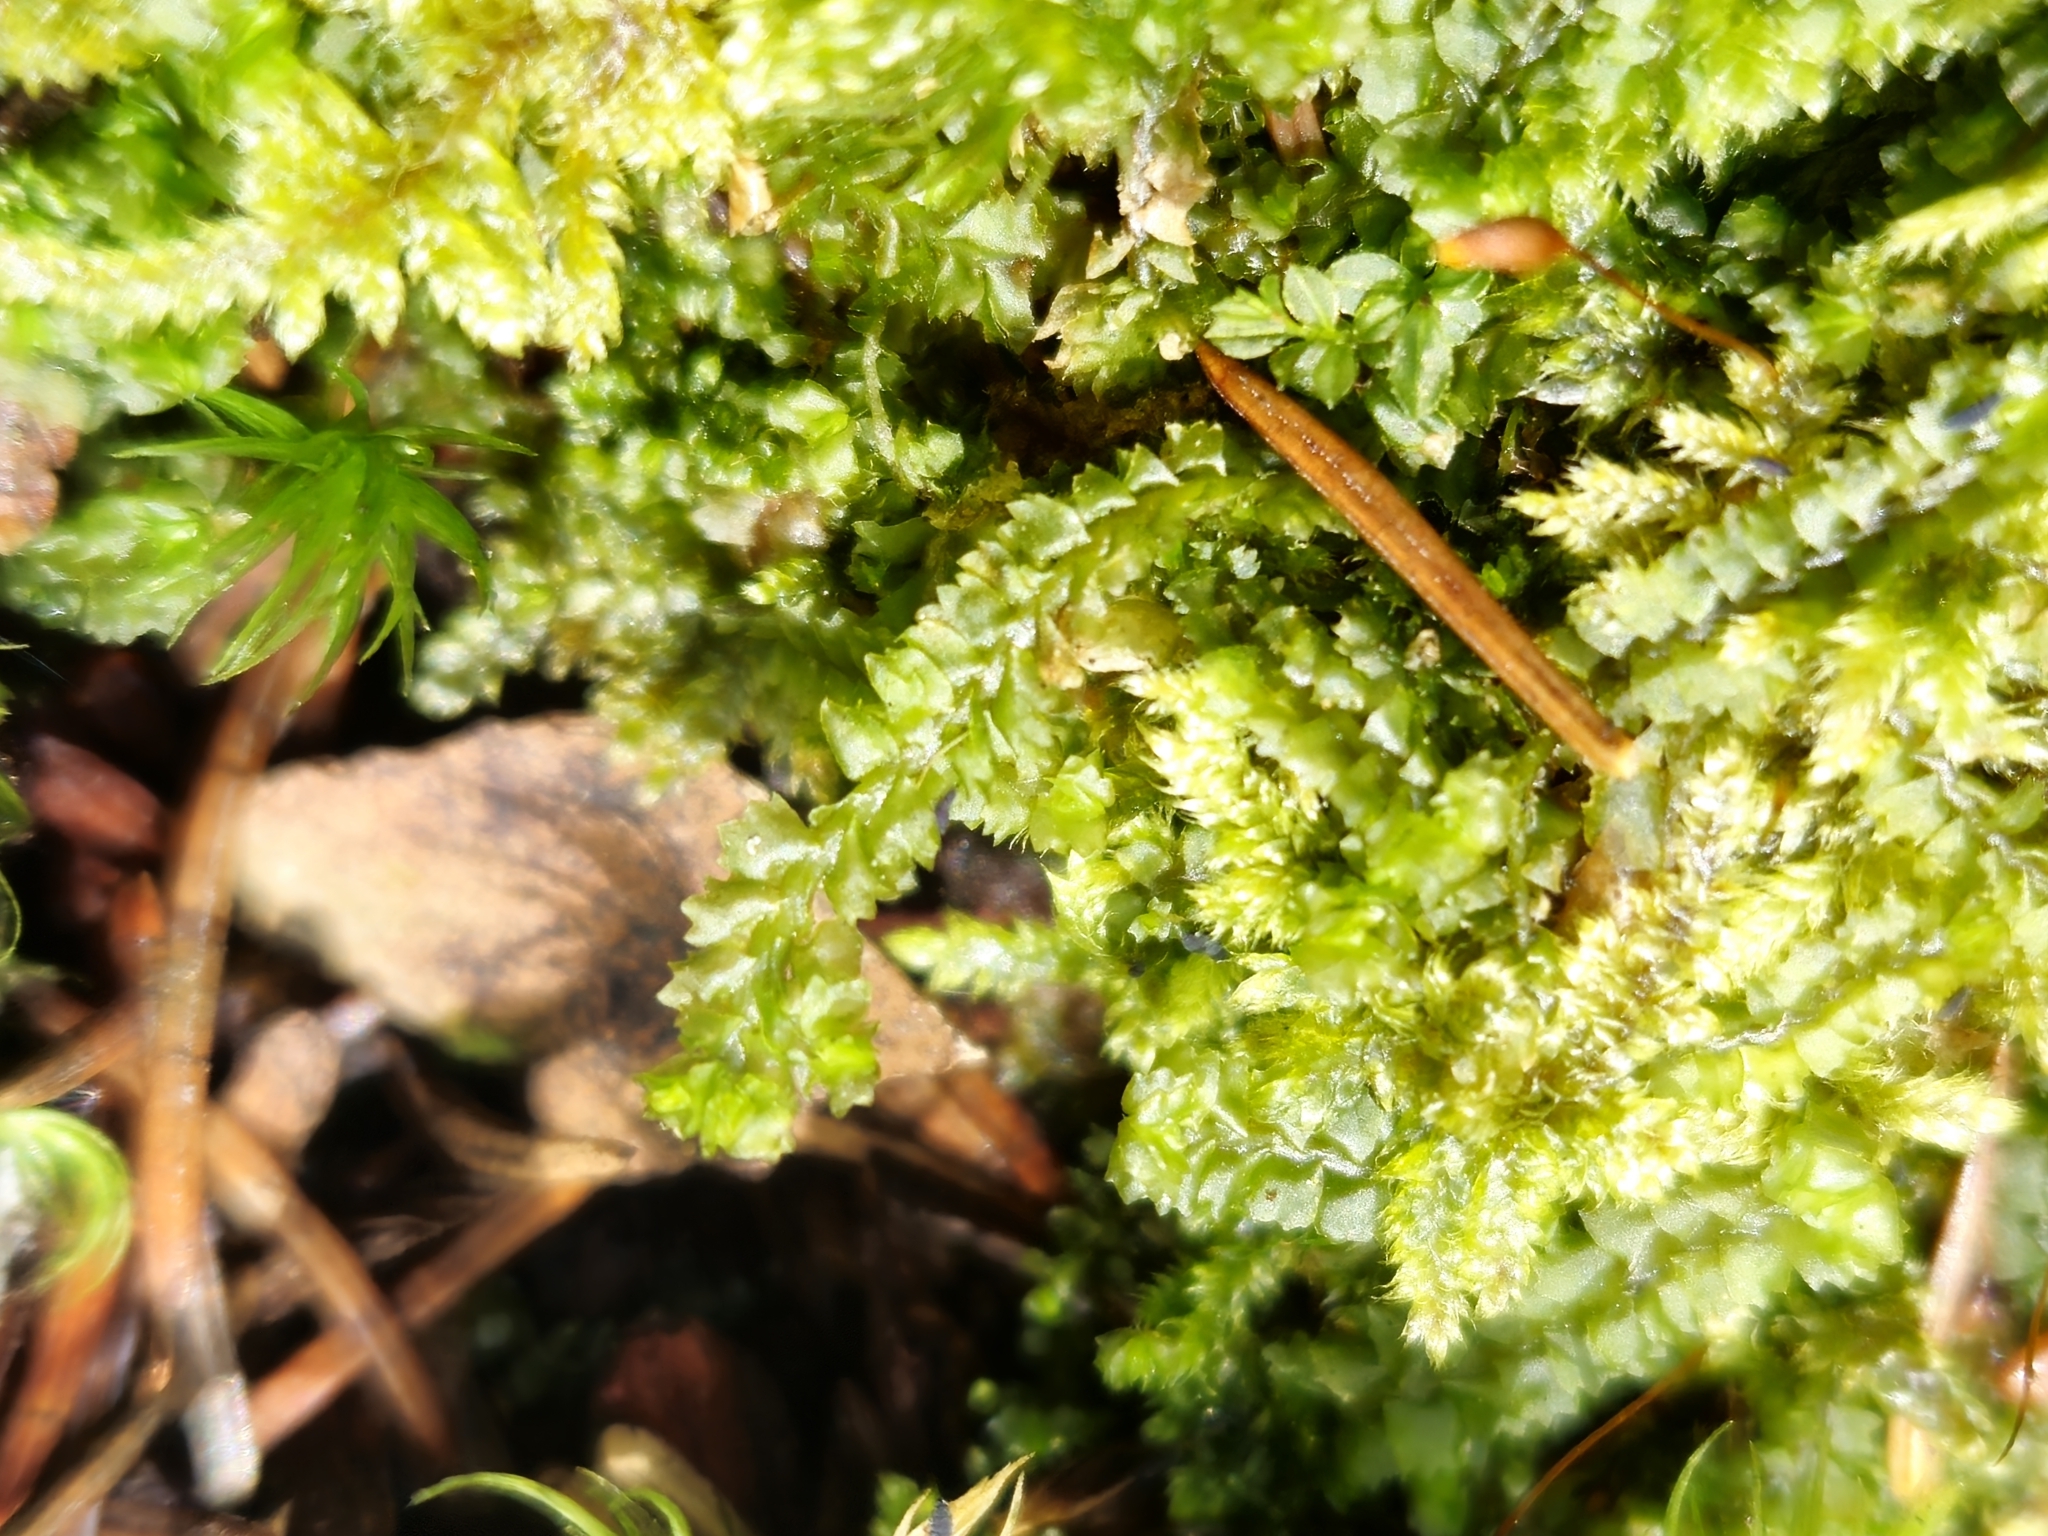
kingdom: Plantae
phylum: Marchantiophyta
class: Jungermanniopsida
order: Jungermanniales
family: Anastrophyllaceae
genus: Barbilophozia
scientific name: Barbilophozia barbata
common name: Bearded pawwort
